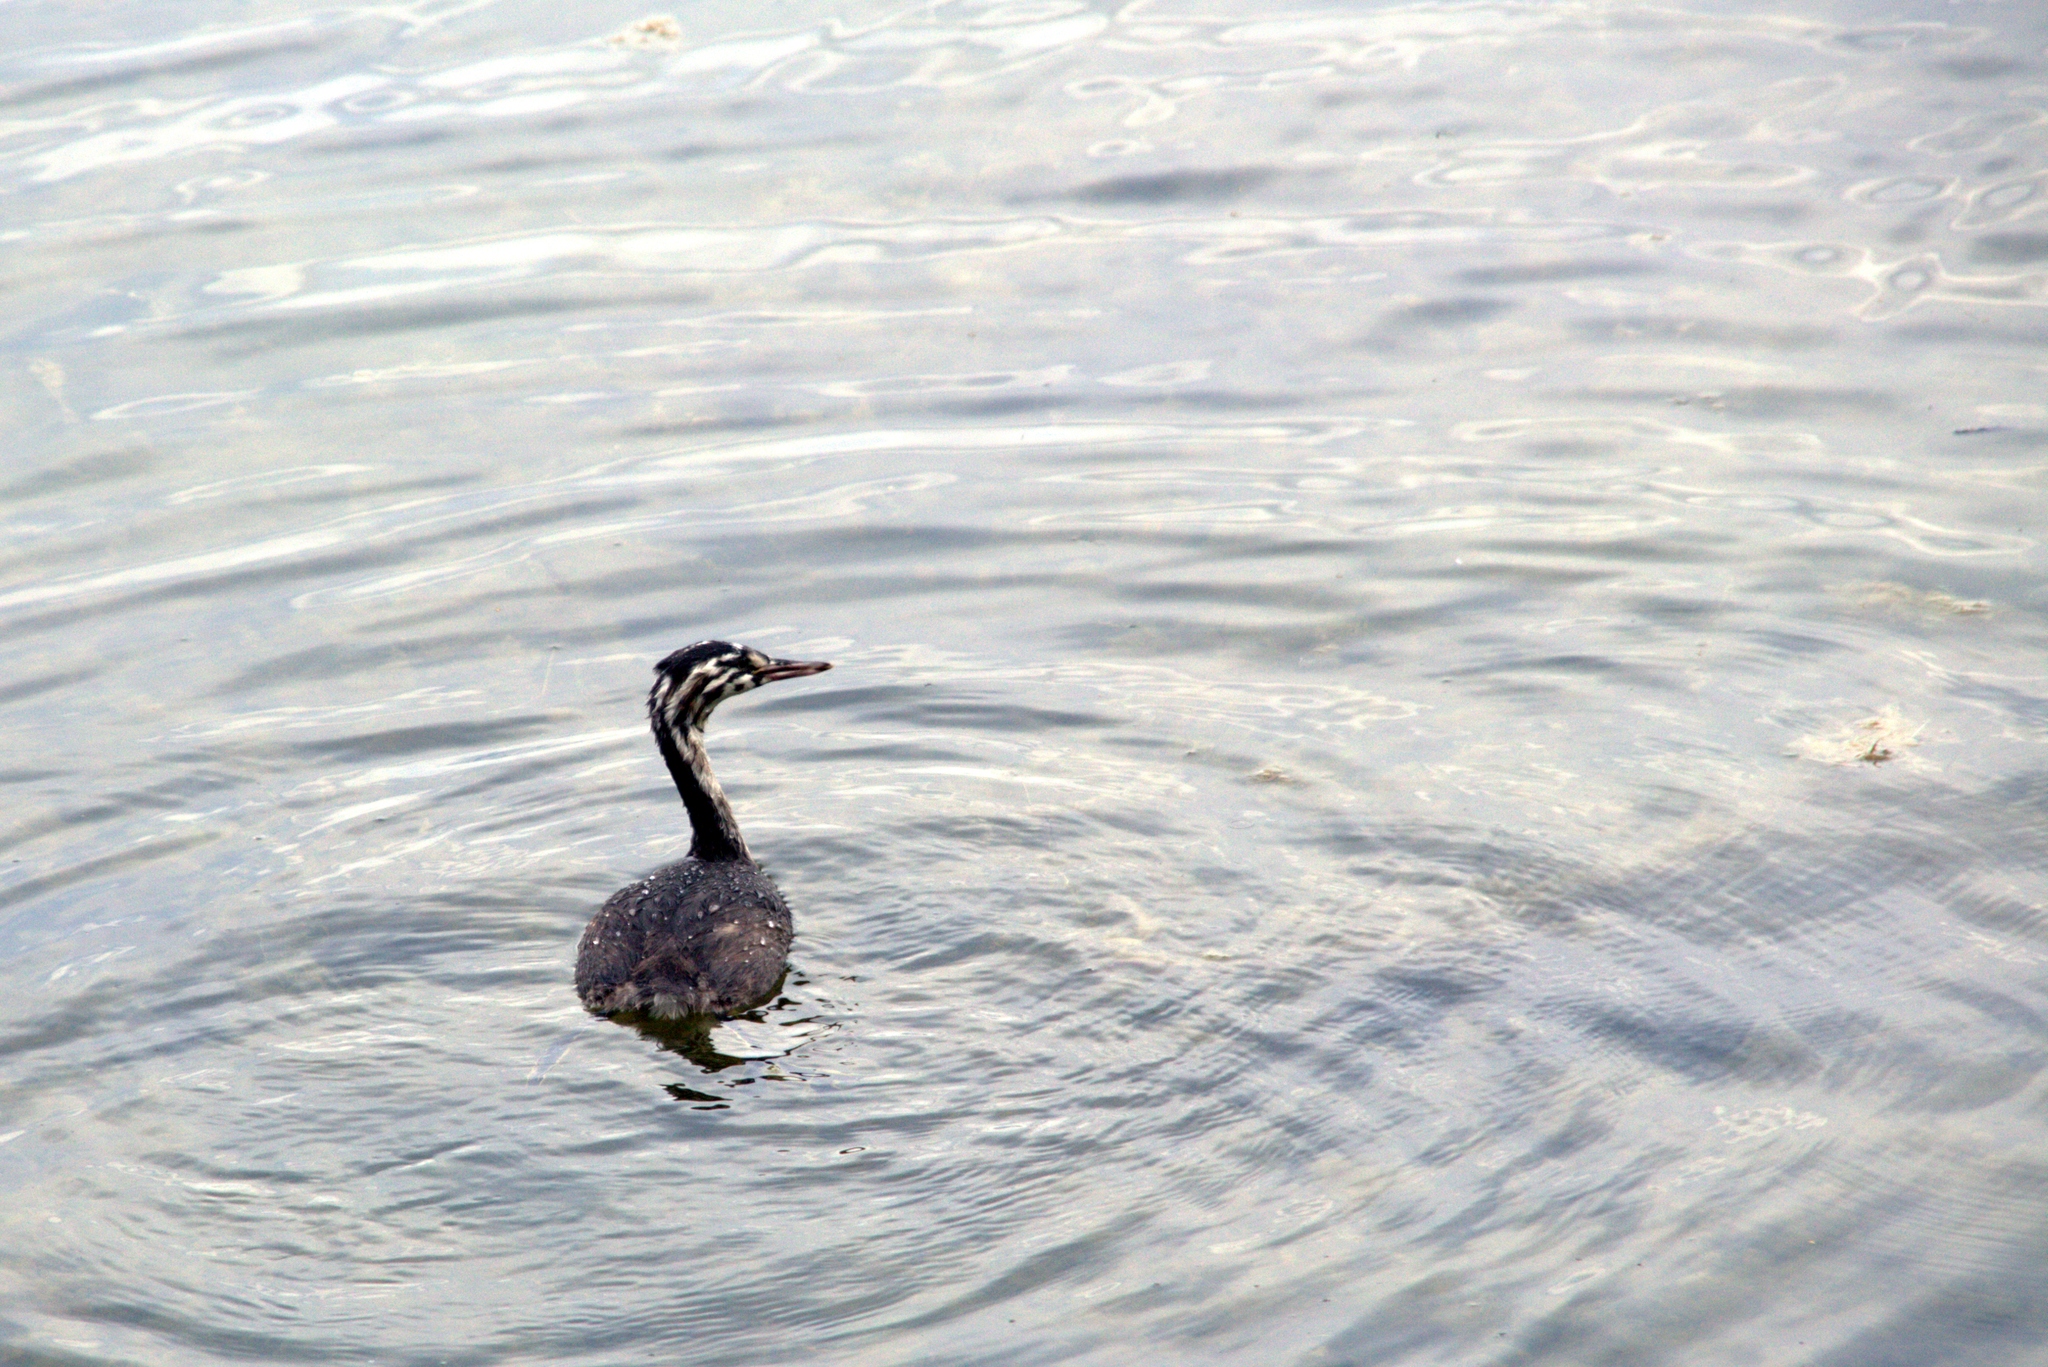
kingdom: Animalia
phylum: Chordata
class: Aves
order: Podicipediformes
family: Podicipedidae
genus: Podiceps
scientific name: Podiceps cristatus
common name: Great crested grebe
